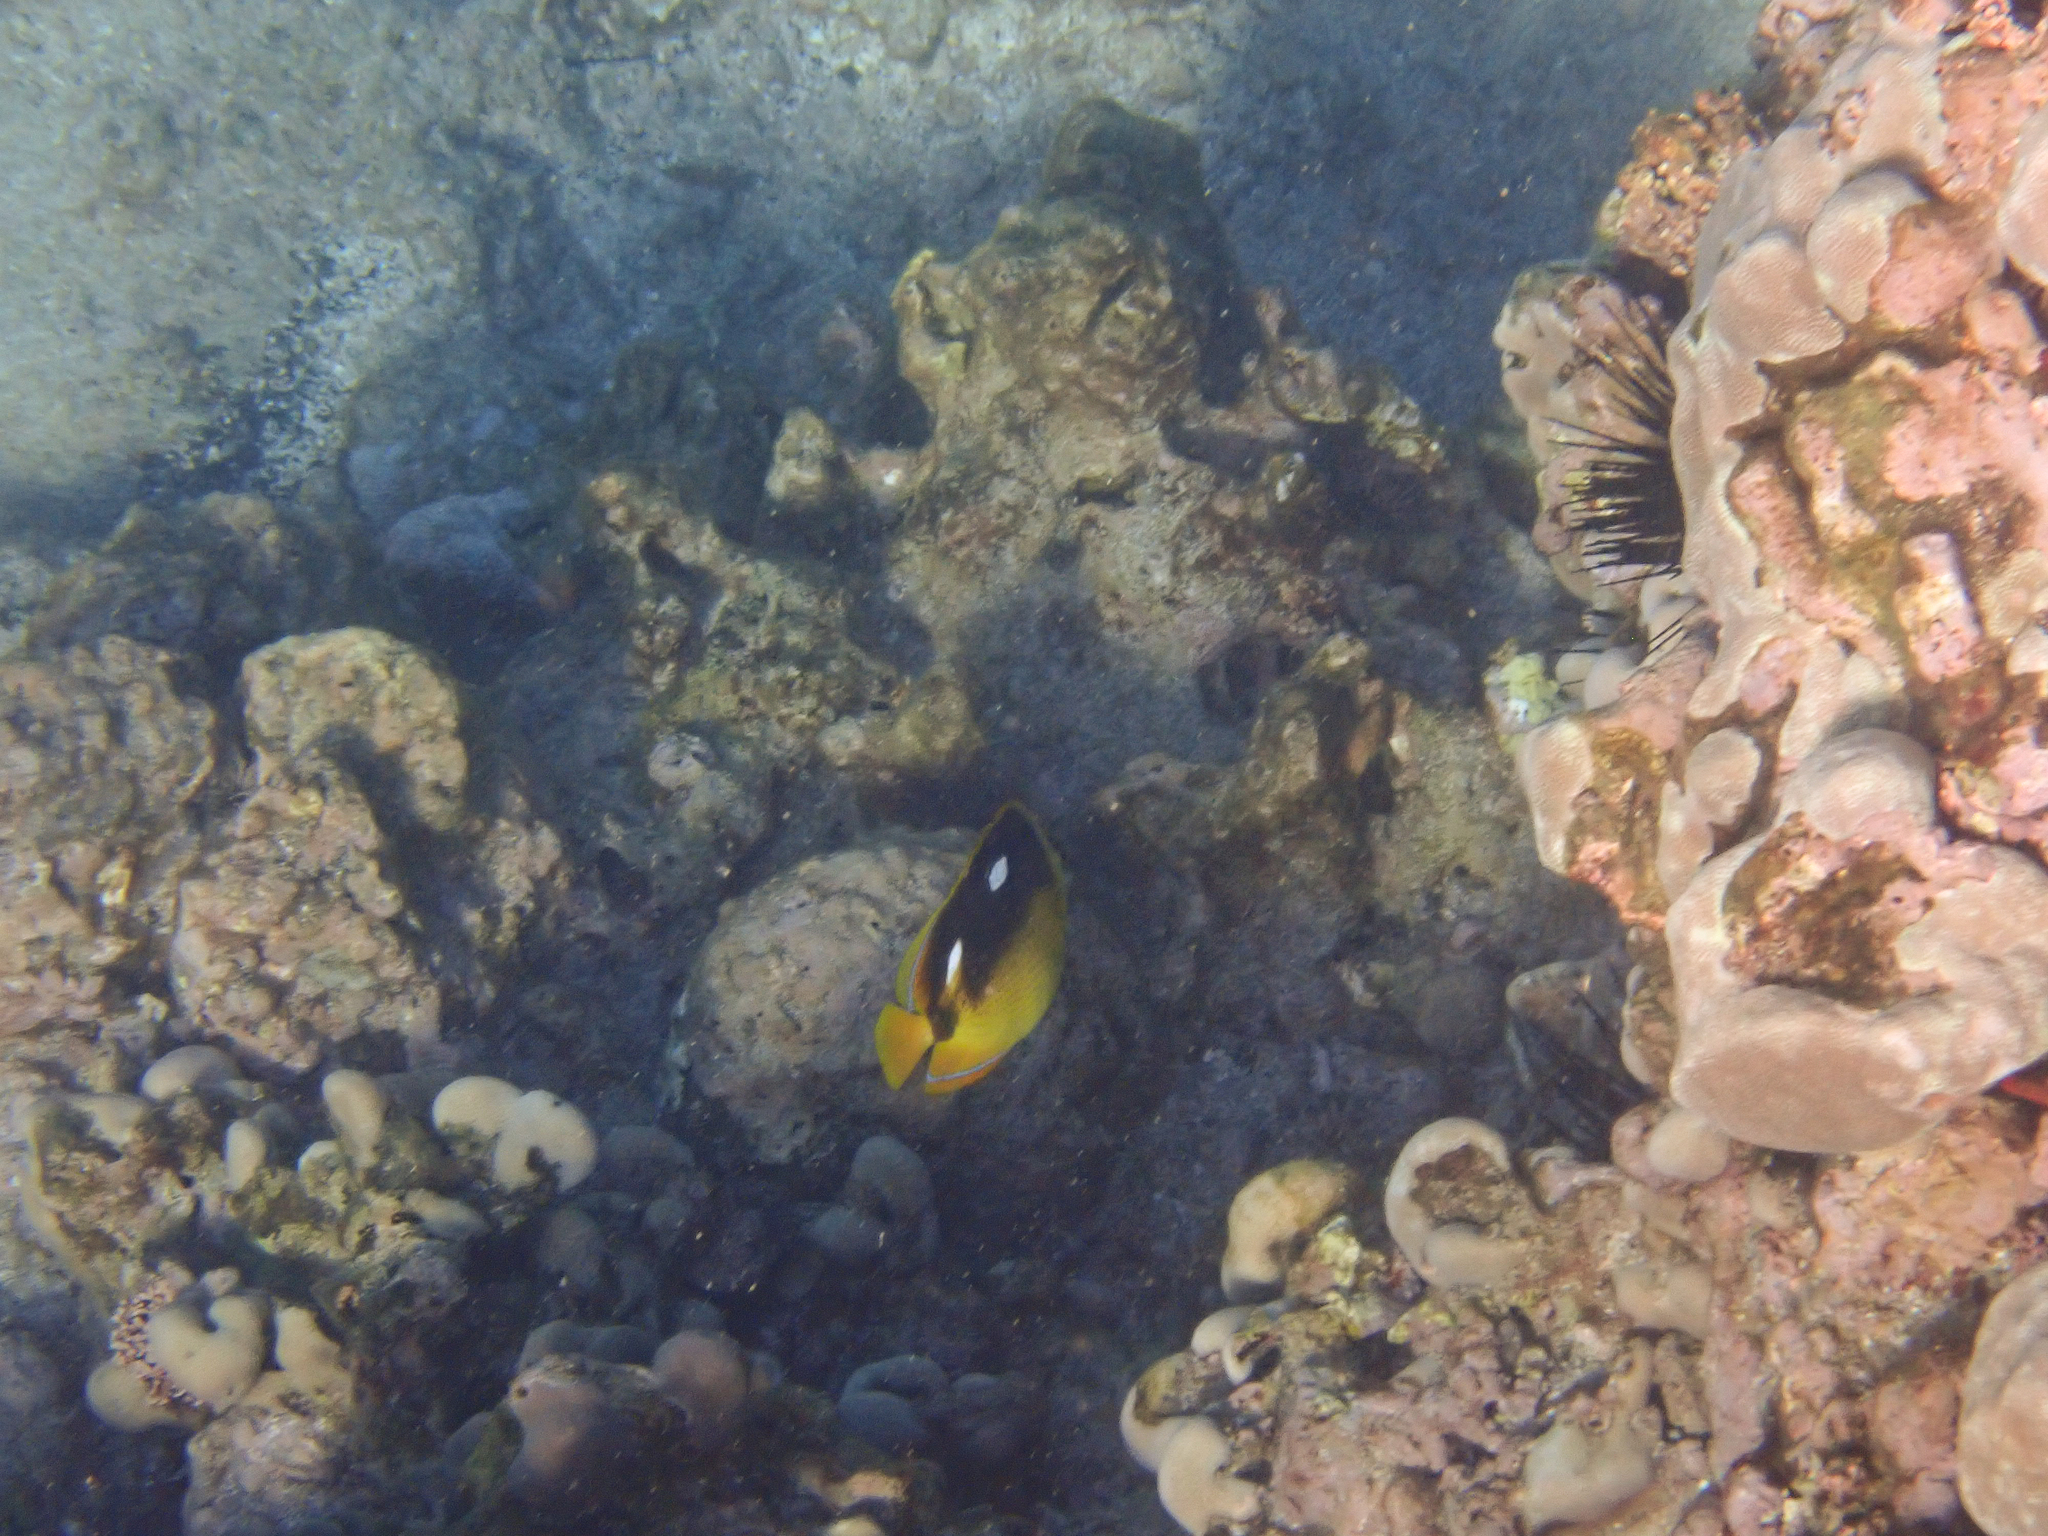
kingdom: Animalia
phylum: Chordata
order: Perciformes
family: Chaetodontidae
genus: Chaetodon
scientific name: Chaetodon quadrimaculatus
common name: Fourspot butterflyfish
